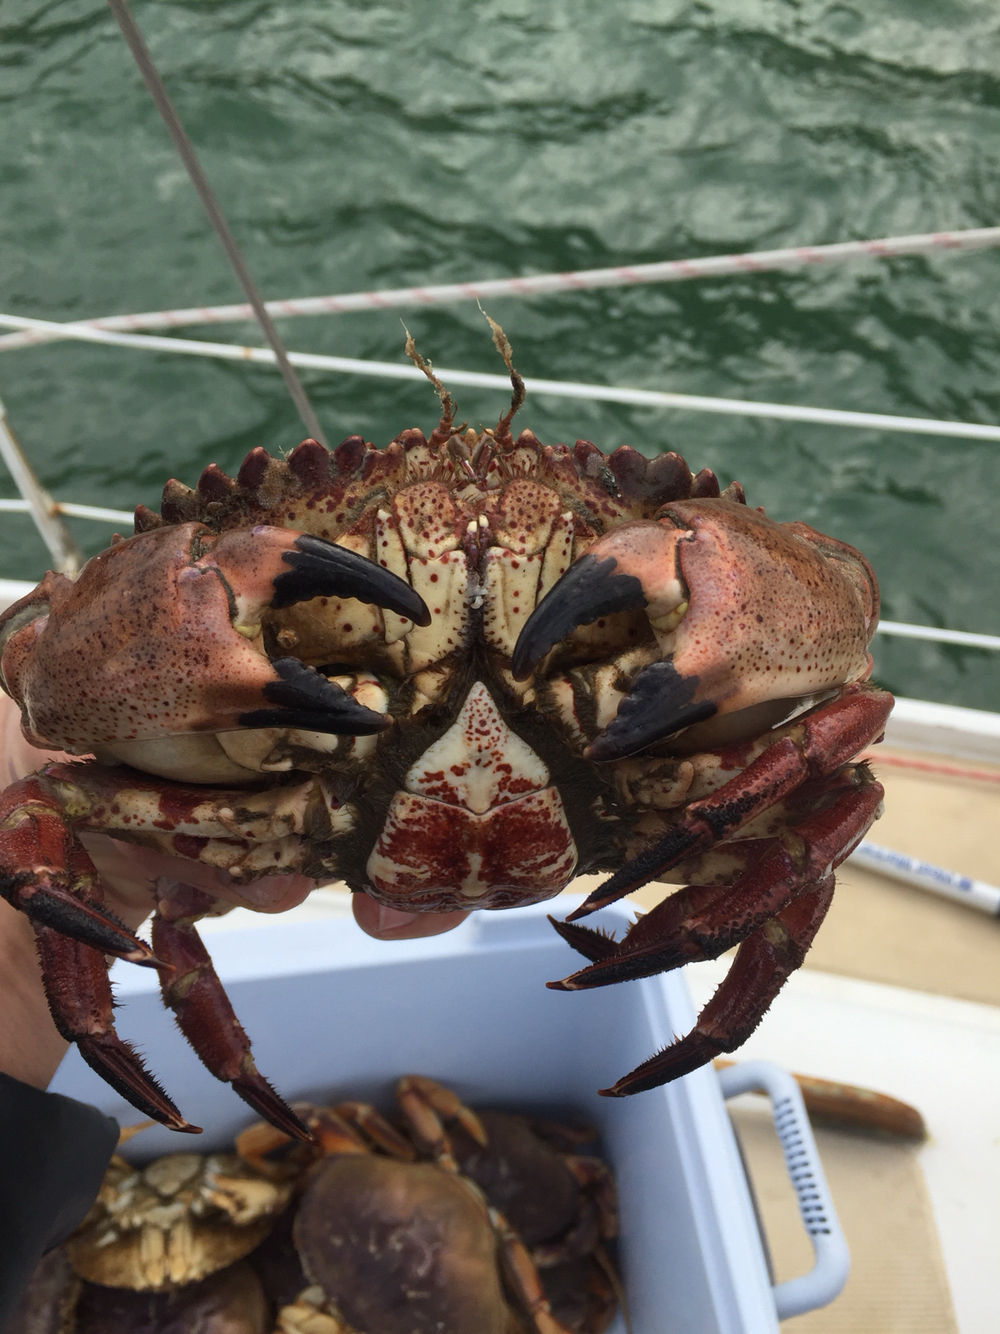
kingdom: Animalia
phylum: Arthropoda
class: Malacostraca
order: Decapoda
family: Cancridae
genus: Romaleon
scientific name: Romaleon antennarium
